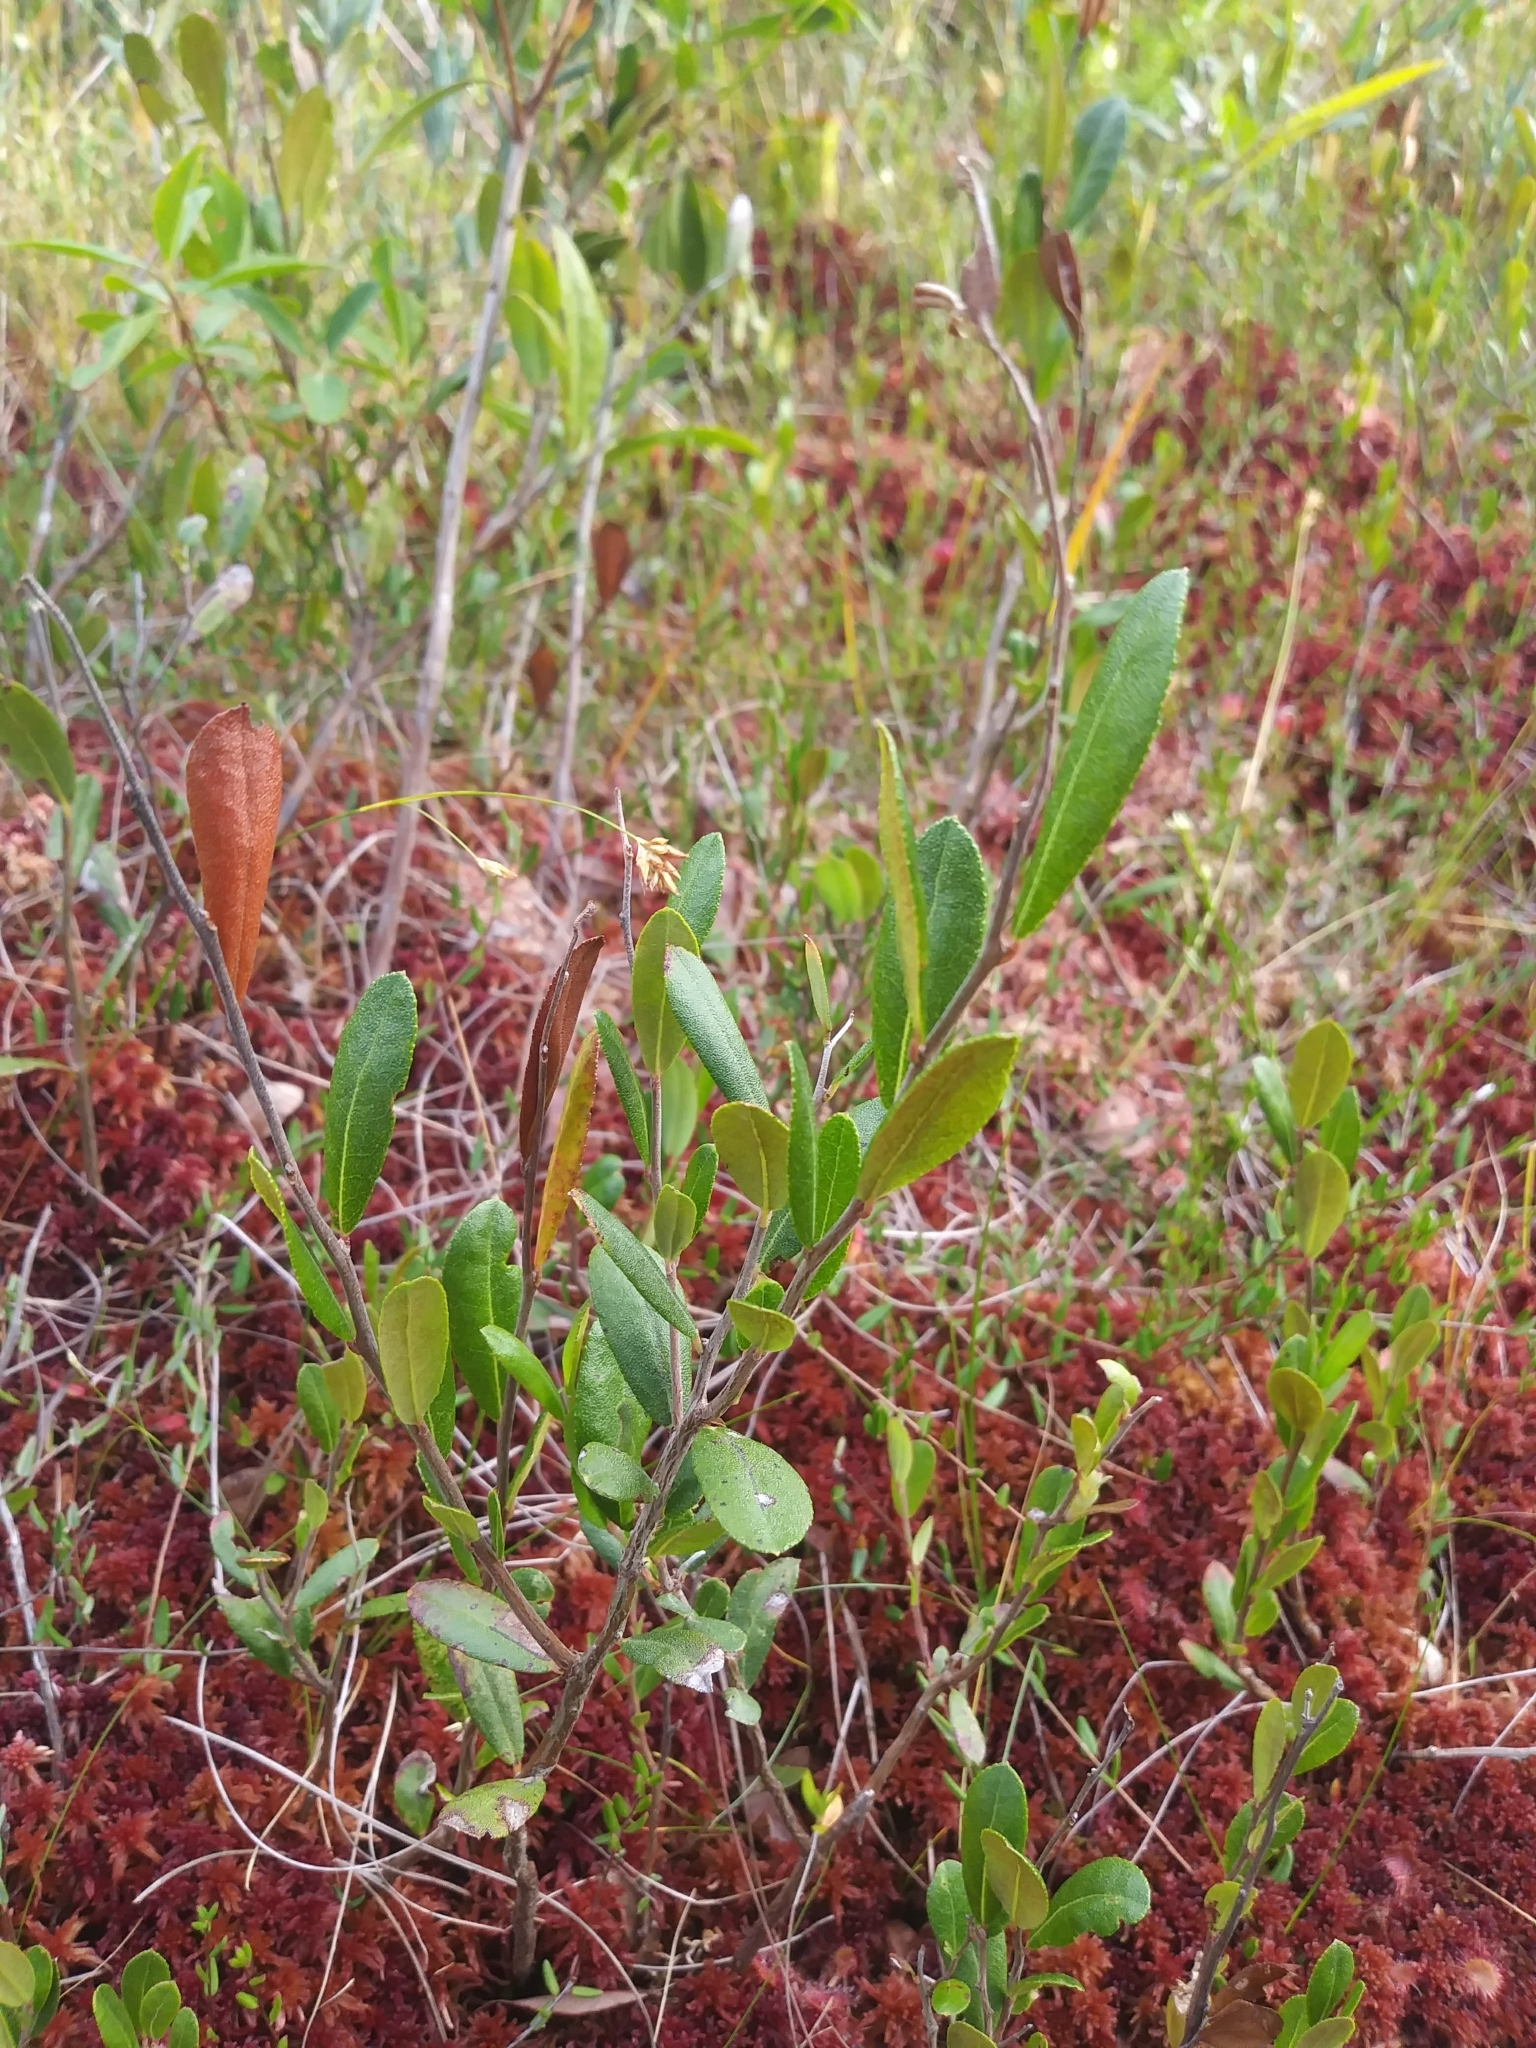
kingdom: Plantae
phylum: Tracheophyta
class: Magnoliopsida
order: Ericales
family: Ericaceae
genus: Vaccinium
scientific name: Vaccinium oxycoccos
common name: Cranberry
